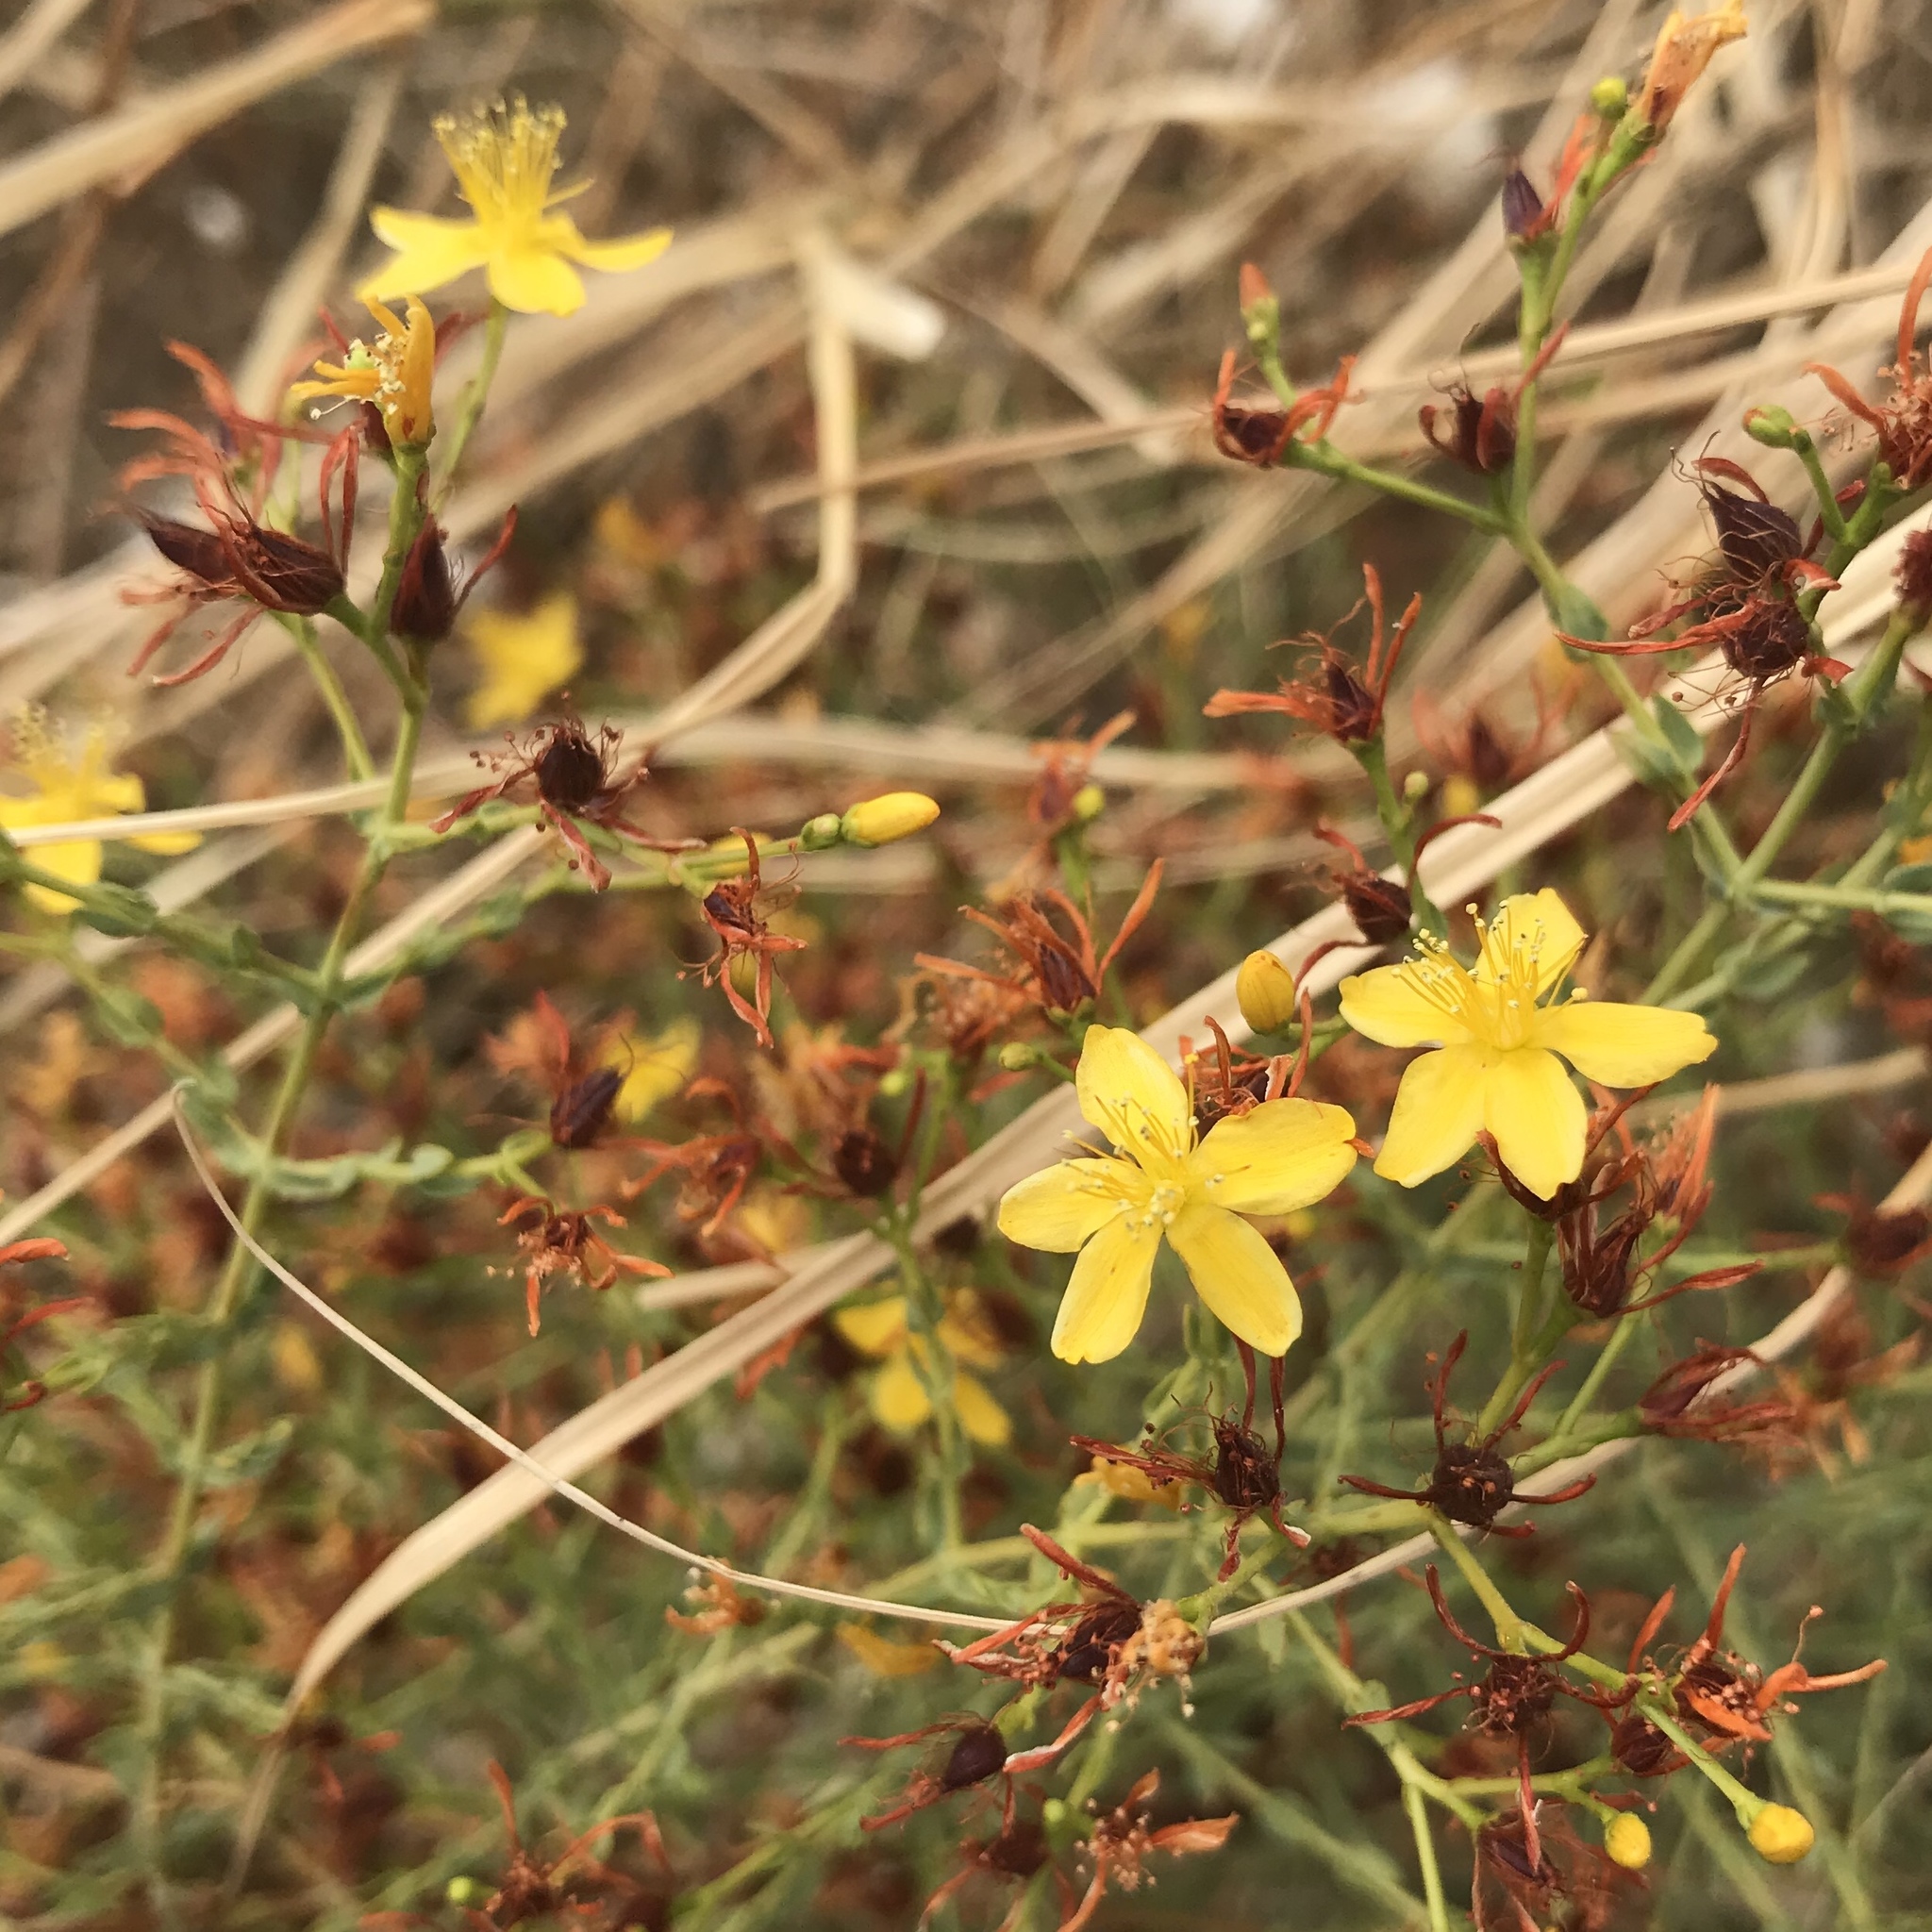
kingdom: Plantae
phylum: Tracheophyta
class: Magnoliopsida
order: Malpighiales
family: Hypericaceae
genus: Hypericum
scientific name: Hypericum triquetrifolium
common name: Tangled hypericum
